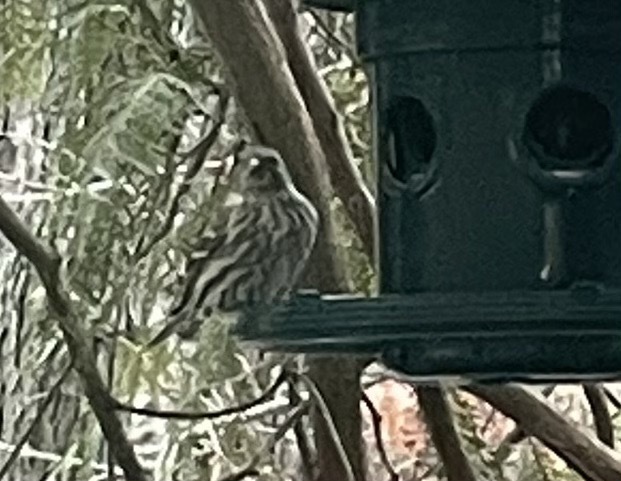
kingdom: Animalia
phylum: Chordata
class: Aves
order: Passeriformes
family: Fringillidae
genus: Spinus
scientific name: Spinus pinus
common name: Pine siskin
